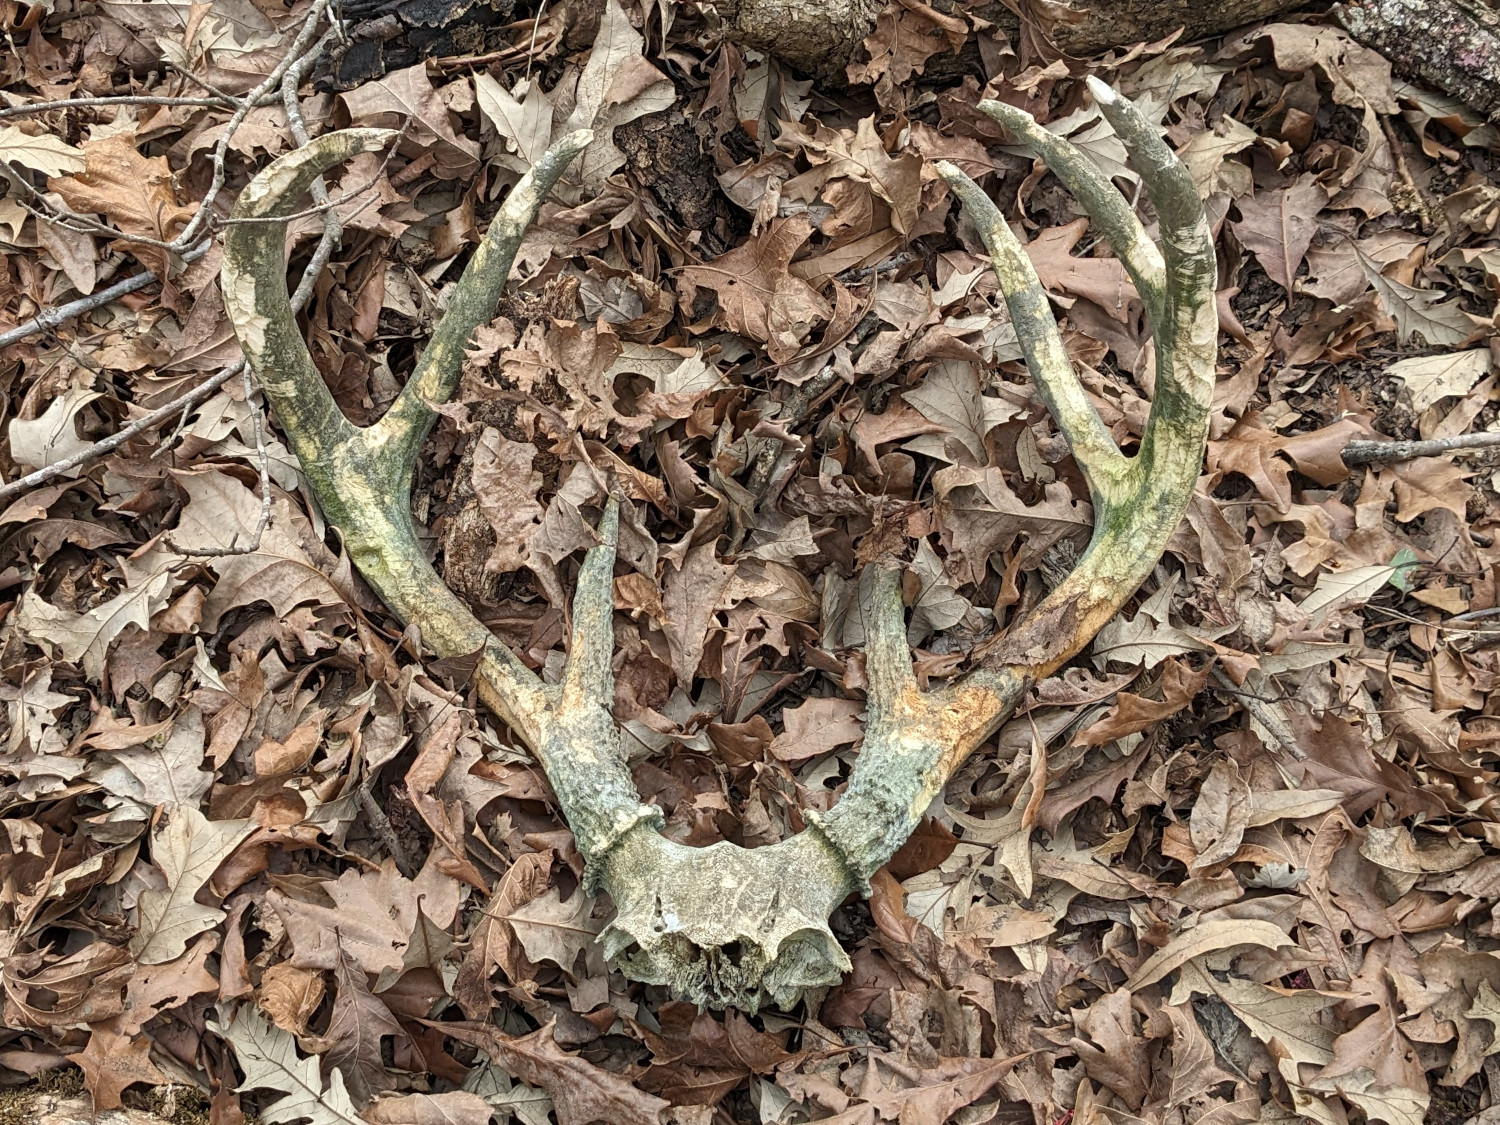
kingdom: Animalia
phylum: Chordata
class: Mammalia
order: Artiodactyla
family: Cervidae
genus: Odocoileus
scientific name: Odocoileus virginianus
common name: White-tailed deer
